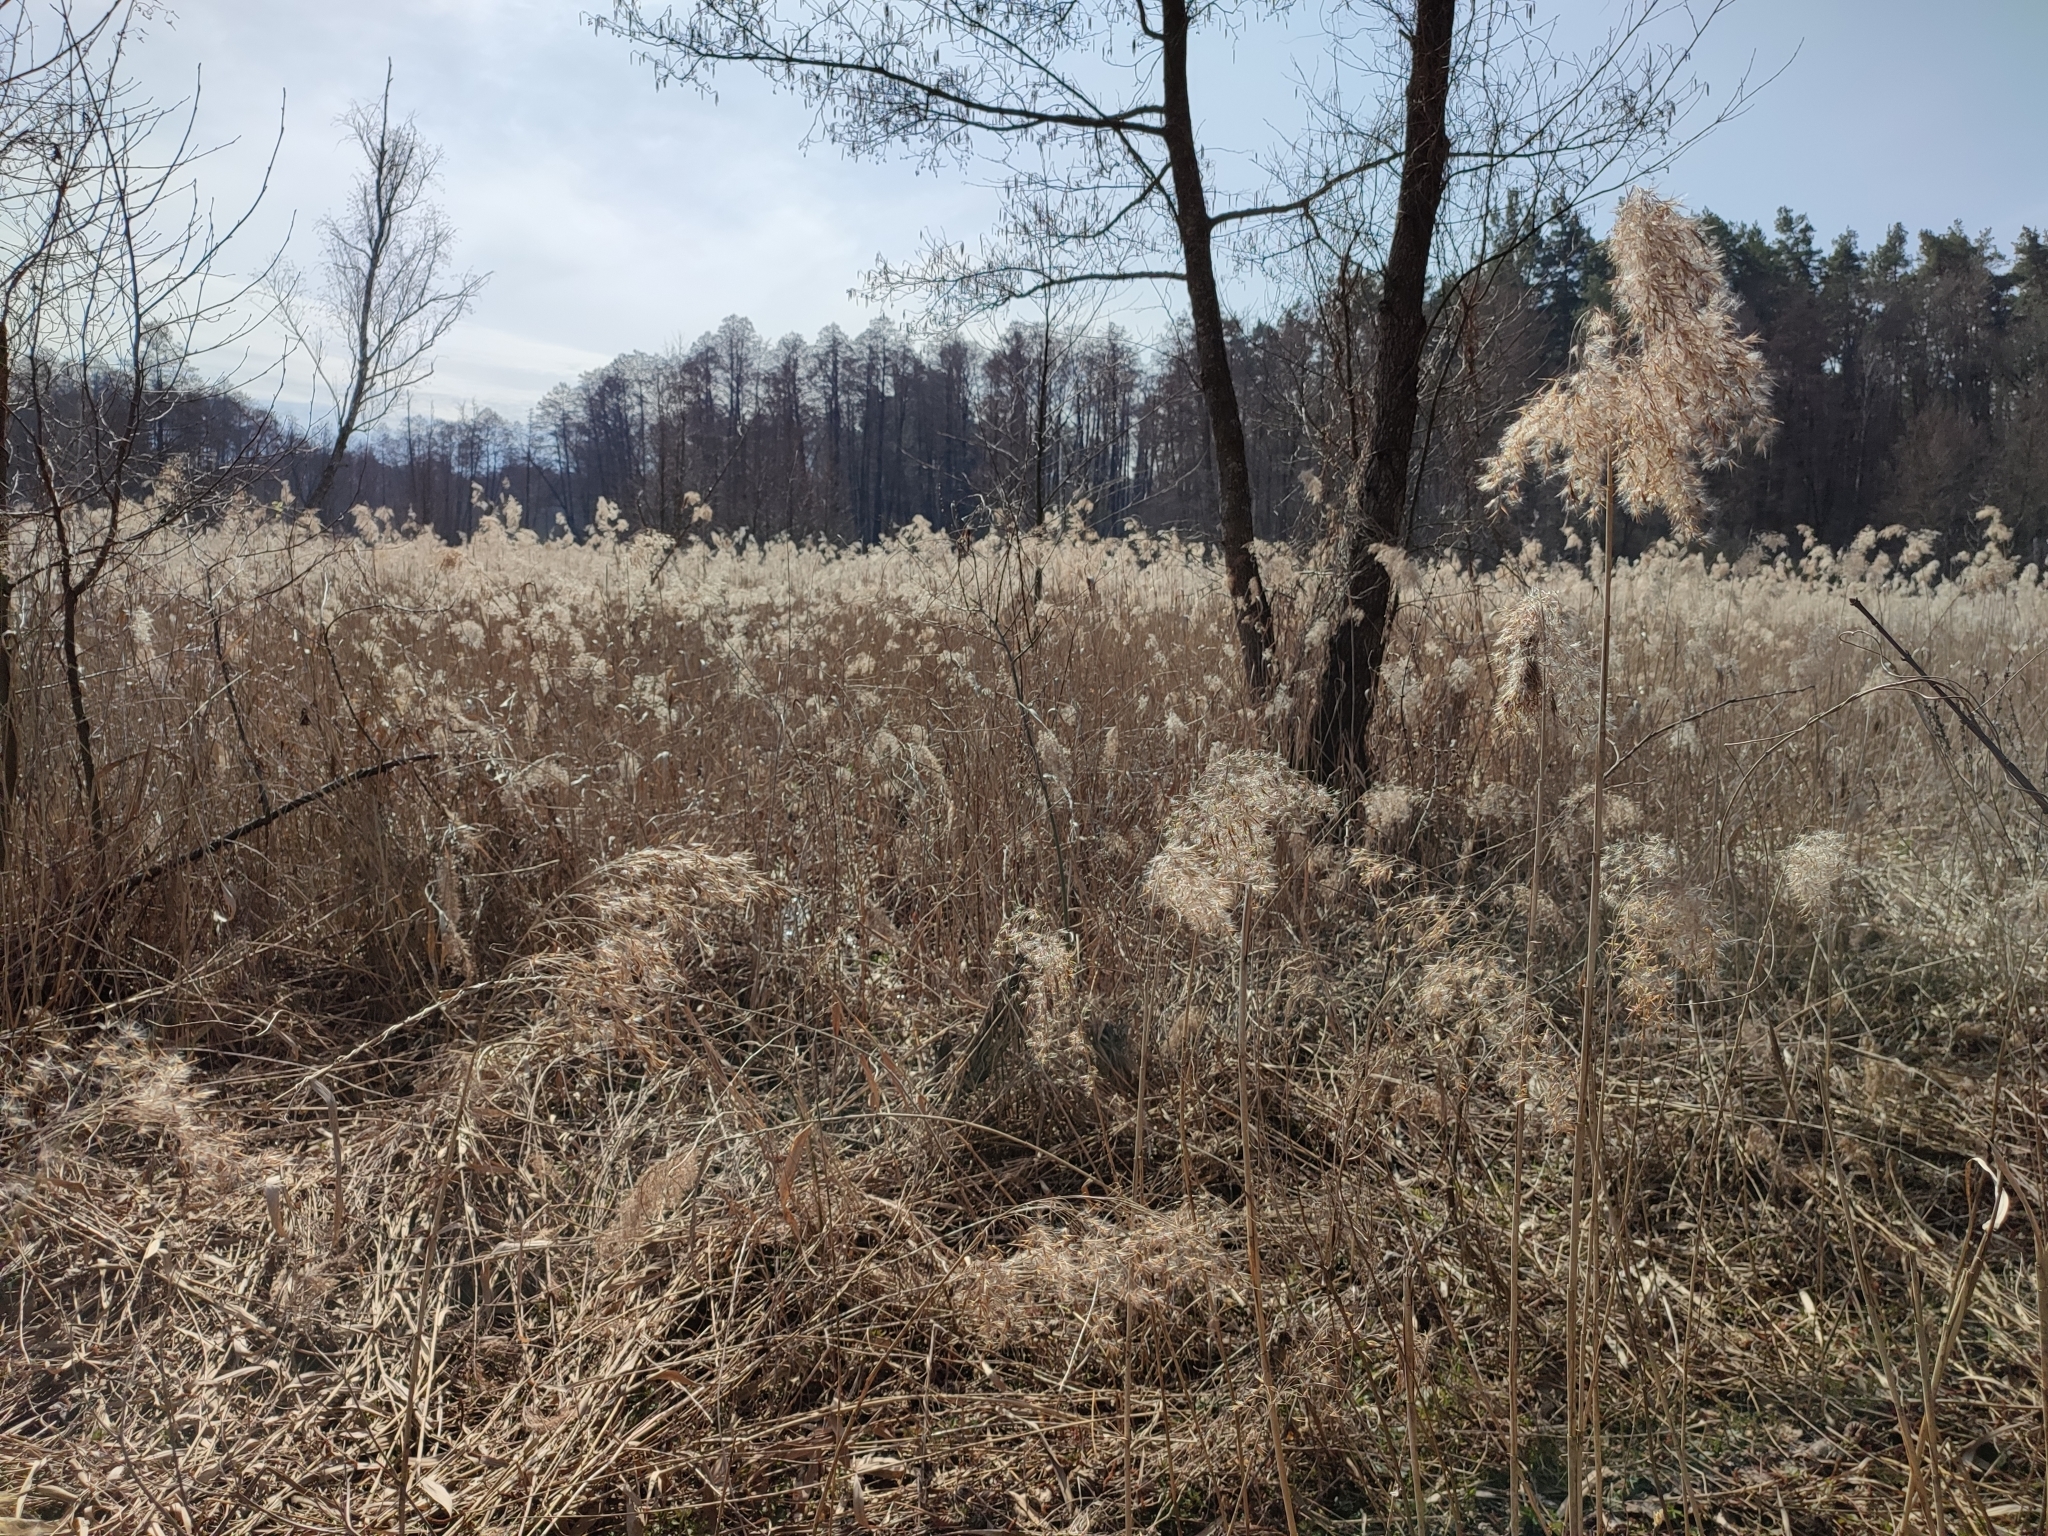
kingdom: Plantae
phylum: Tracheophyta
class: Liliopsida
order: Poales
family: Poaceae
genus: Phragmites
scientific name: Phragmites australis
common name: Common reed
